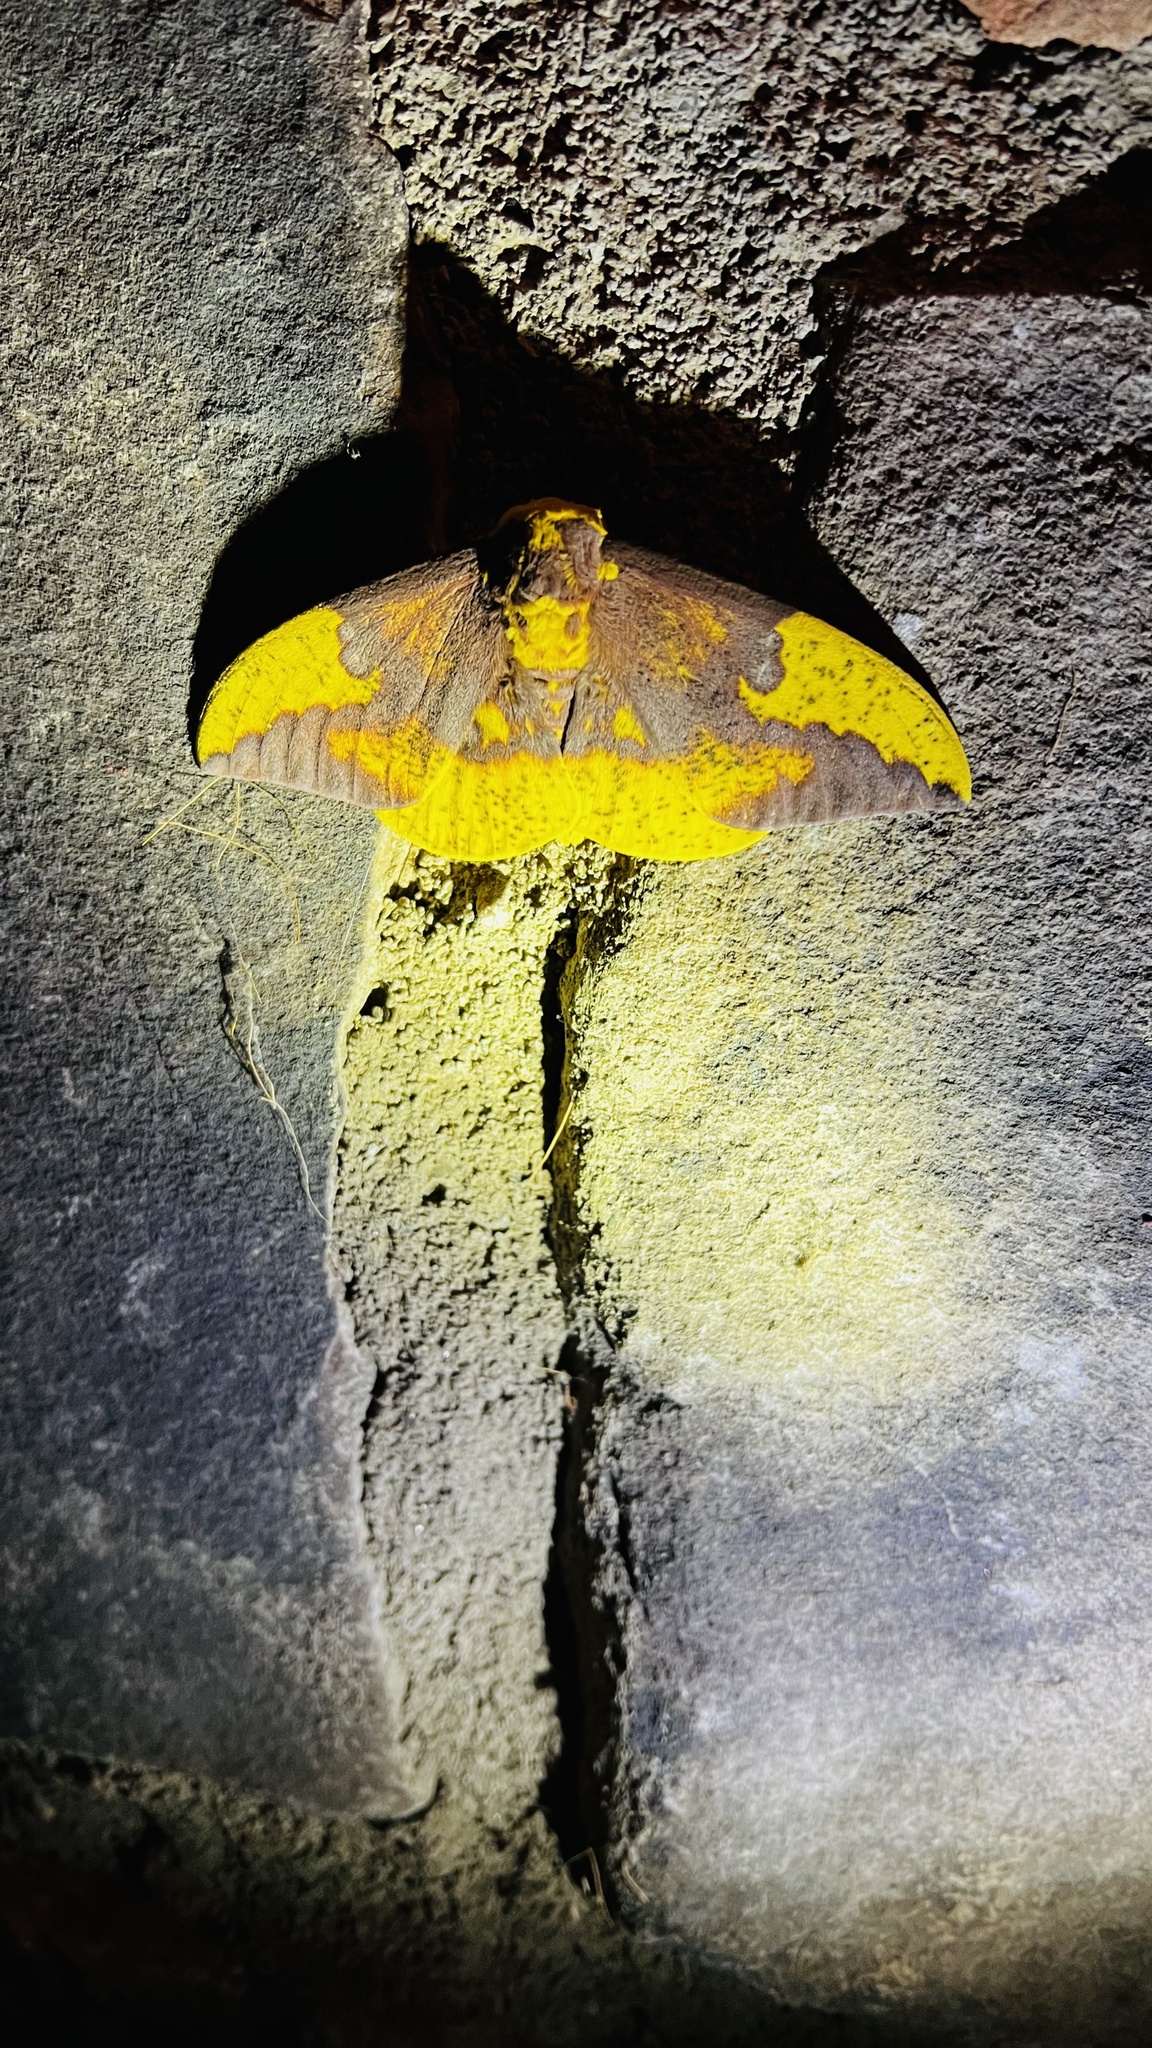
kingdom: Animalia
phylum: Arthropoda
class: Insecta
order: Lepidoptera
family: Saturniidae
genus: Eacles
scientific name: Eacles imperialis
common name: Imperial moth
